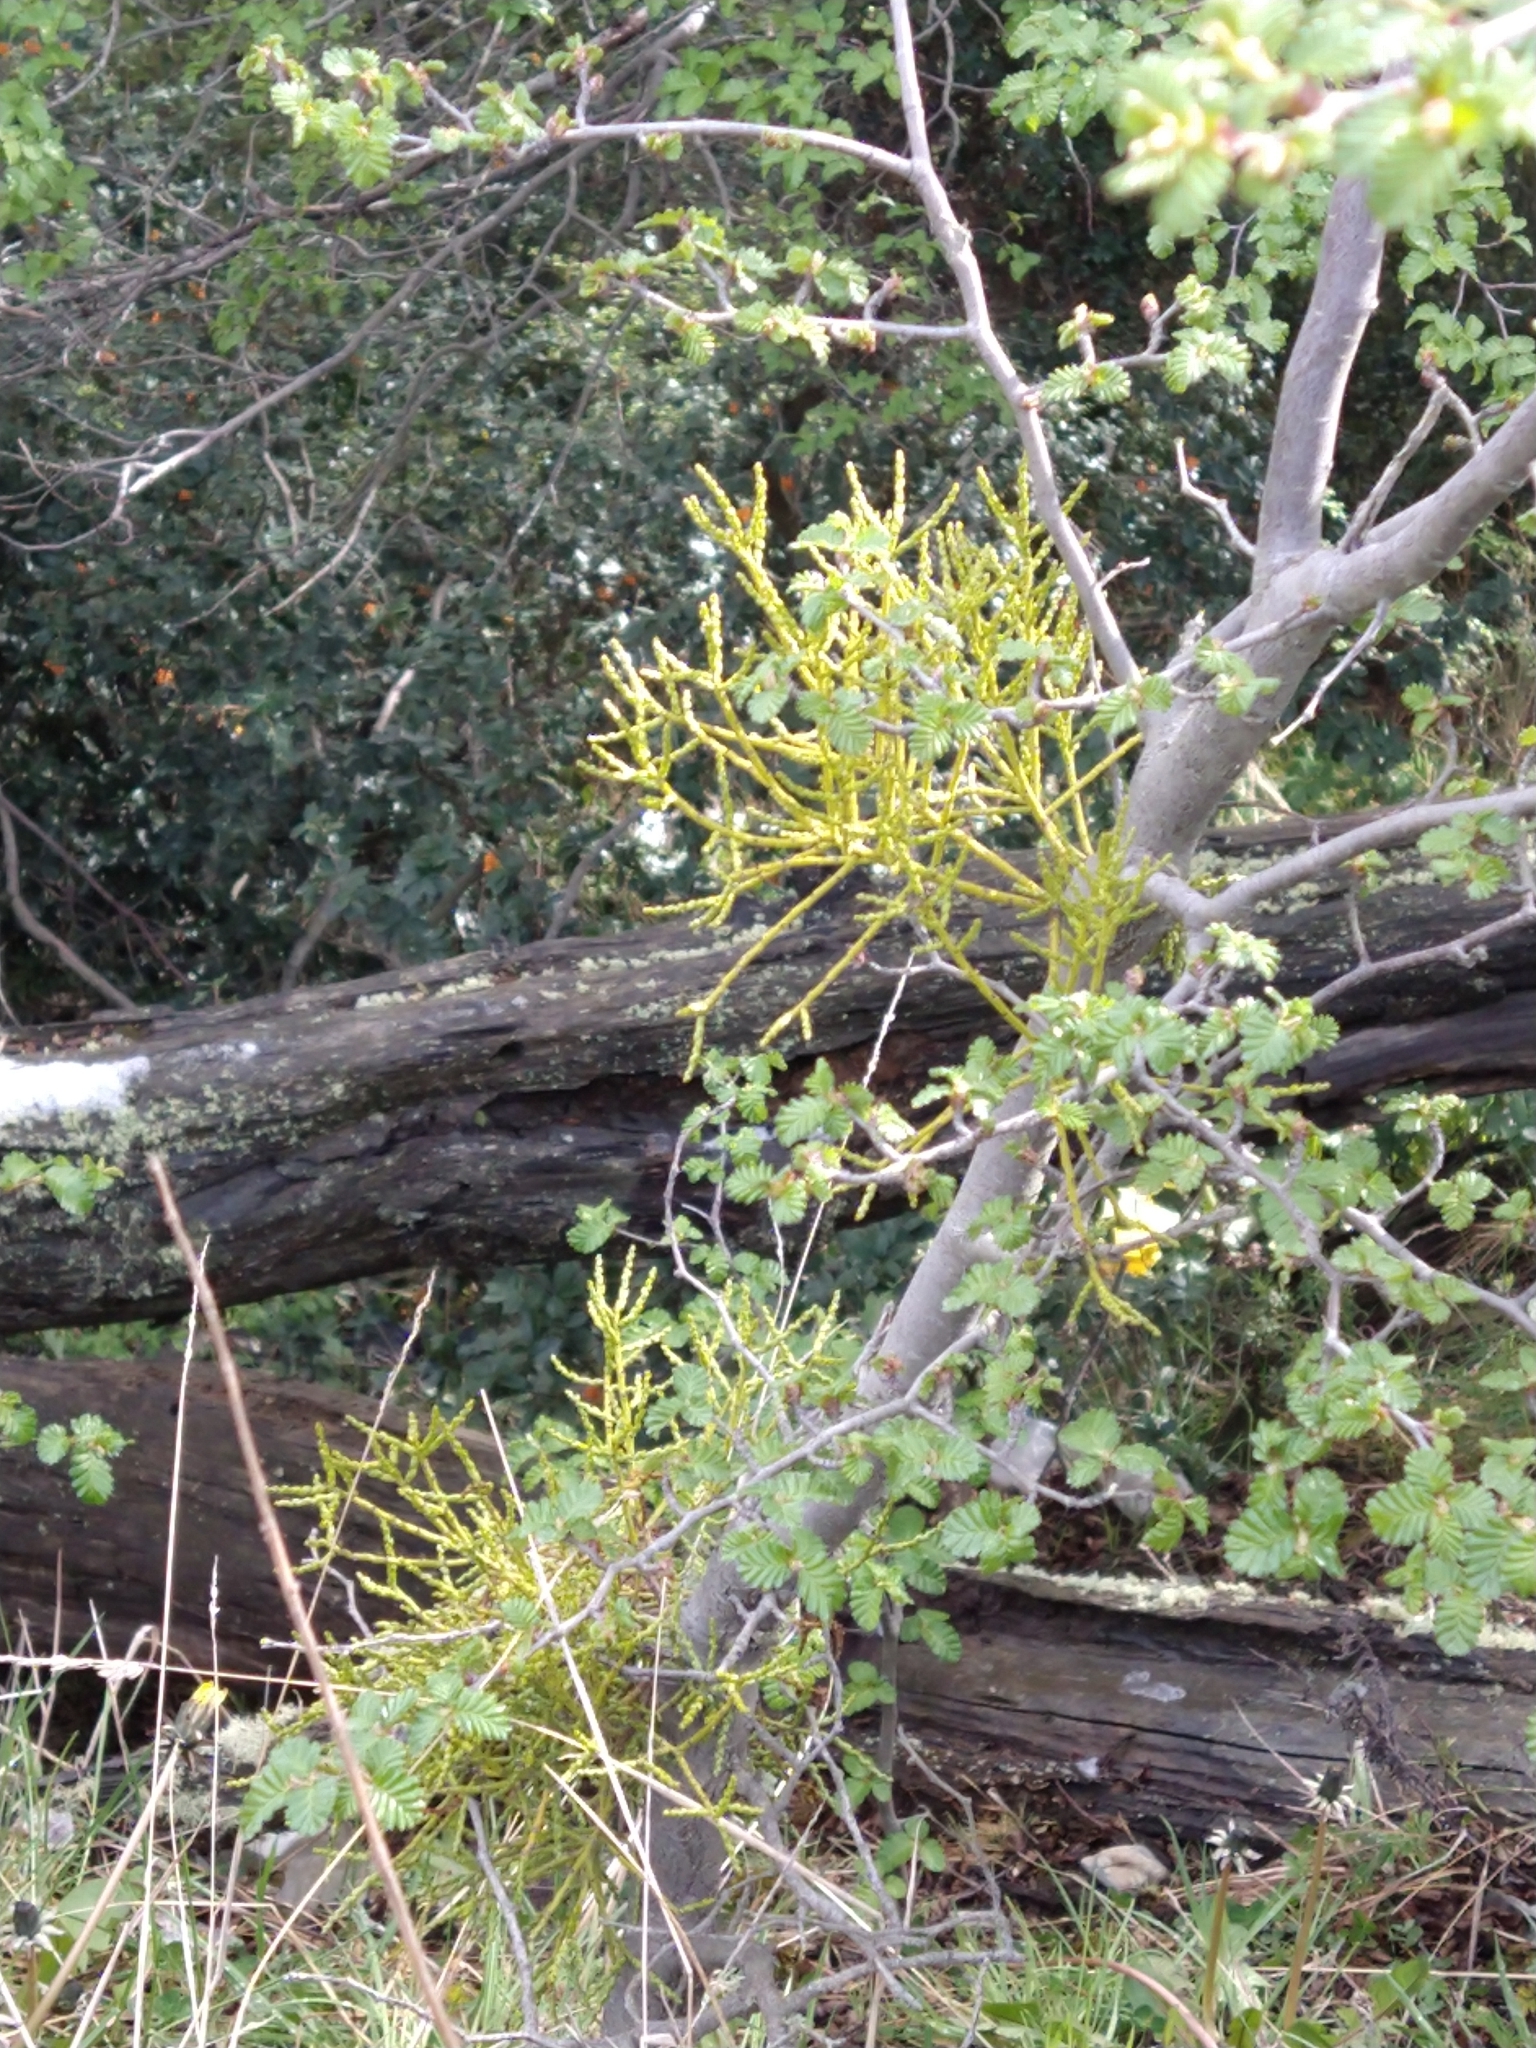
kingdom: Plantae
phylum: Tracheophyta
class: Magnoliopsida
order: Santalales
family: Misodendraceae
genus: Misodendrum
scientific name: Misodendrum punctulatum
